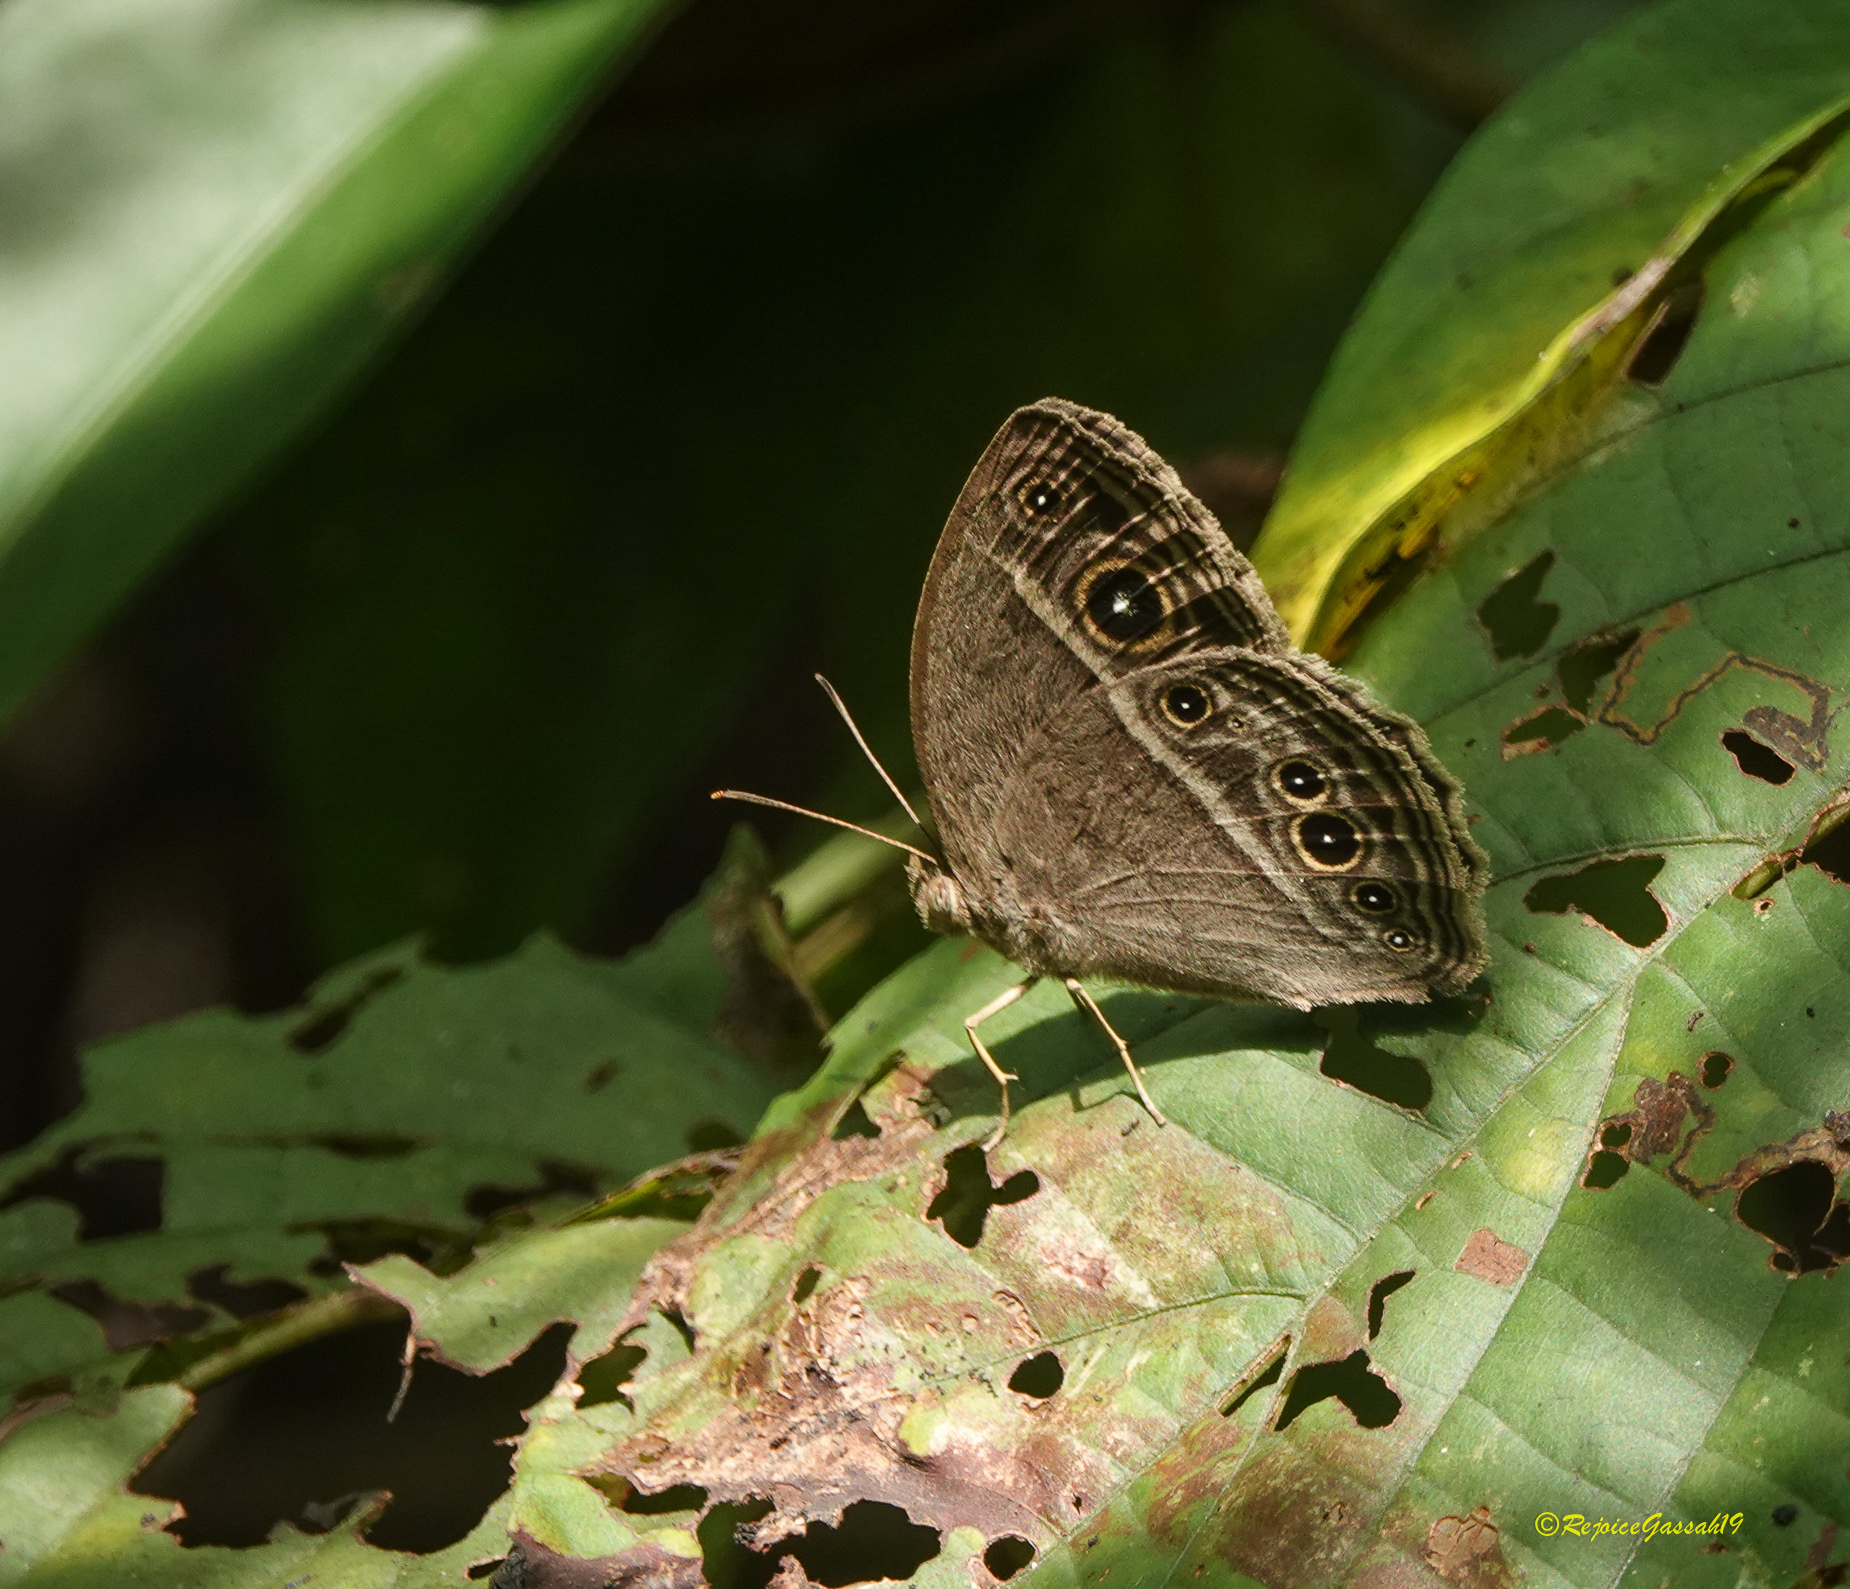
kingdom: Animalia
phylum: Arthropoda
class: Insecta
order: Lepidoptera
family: Nymphalidae
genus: Mycalesis
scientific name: Mycalesis mineus
